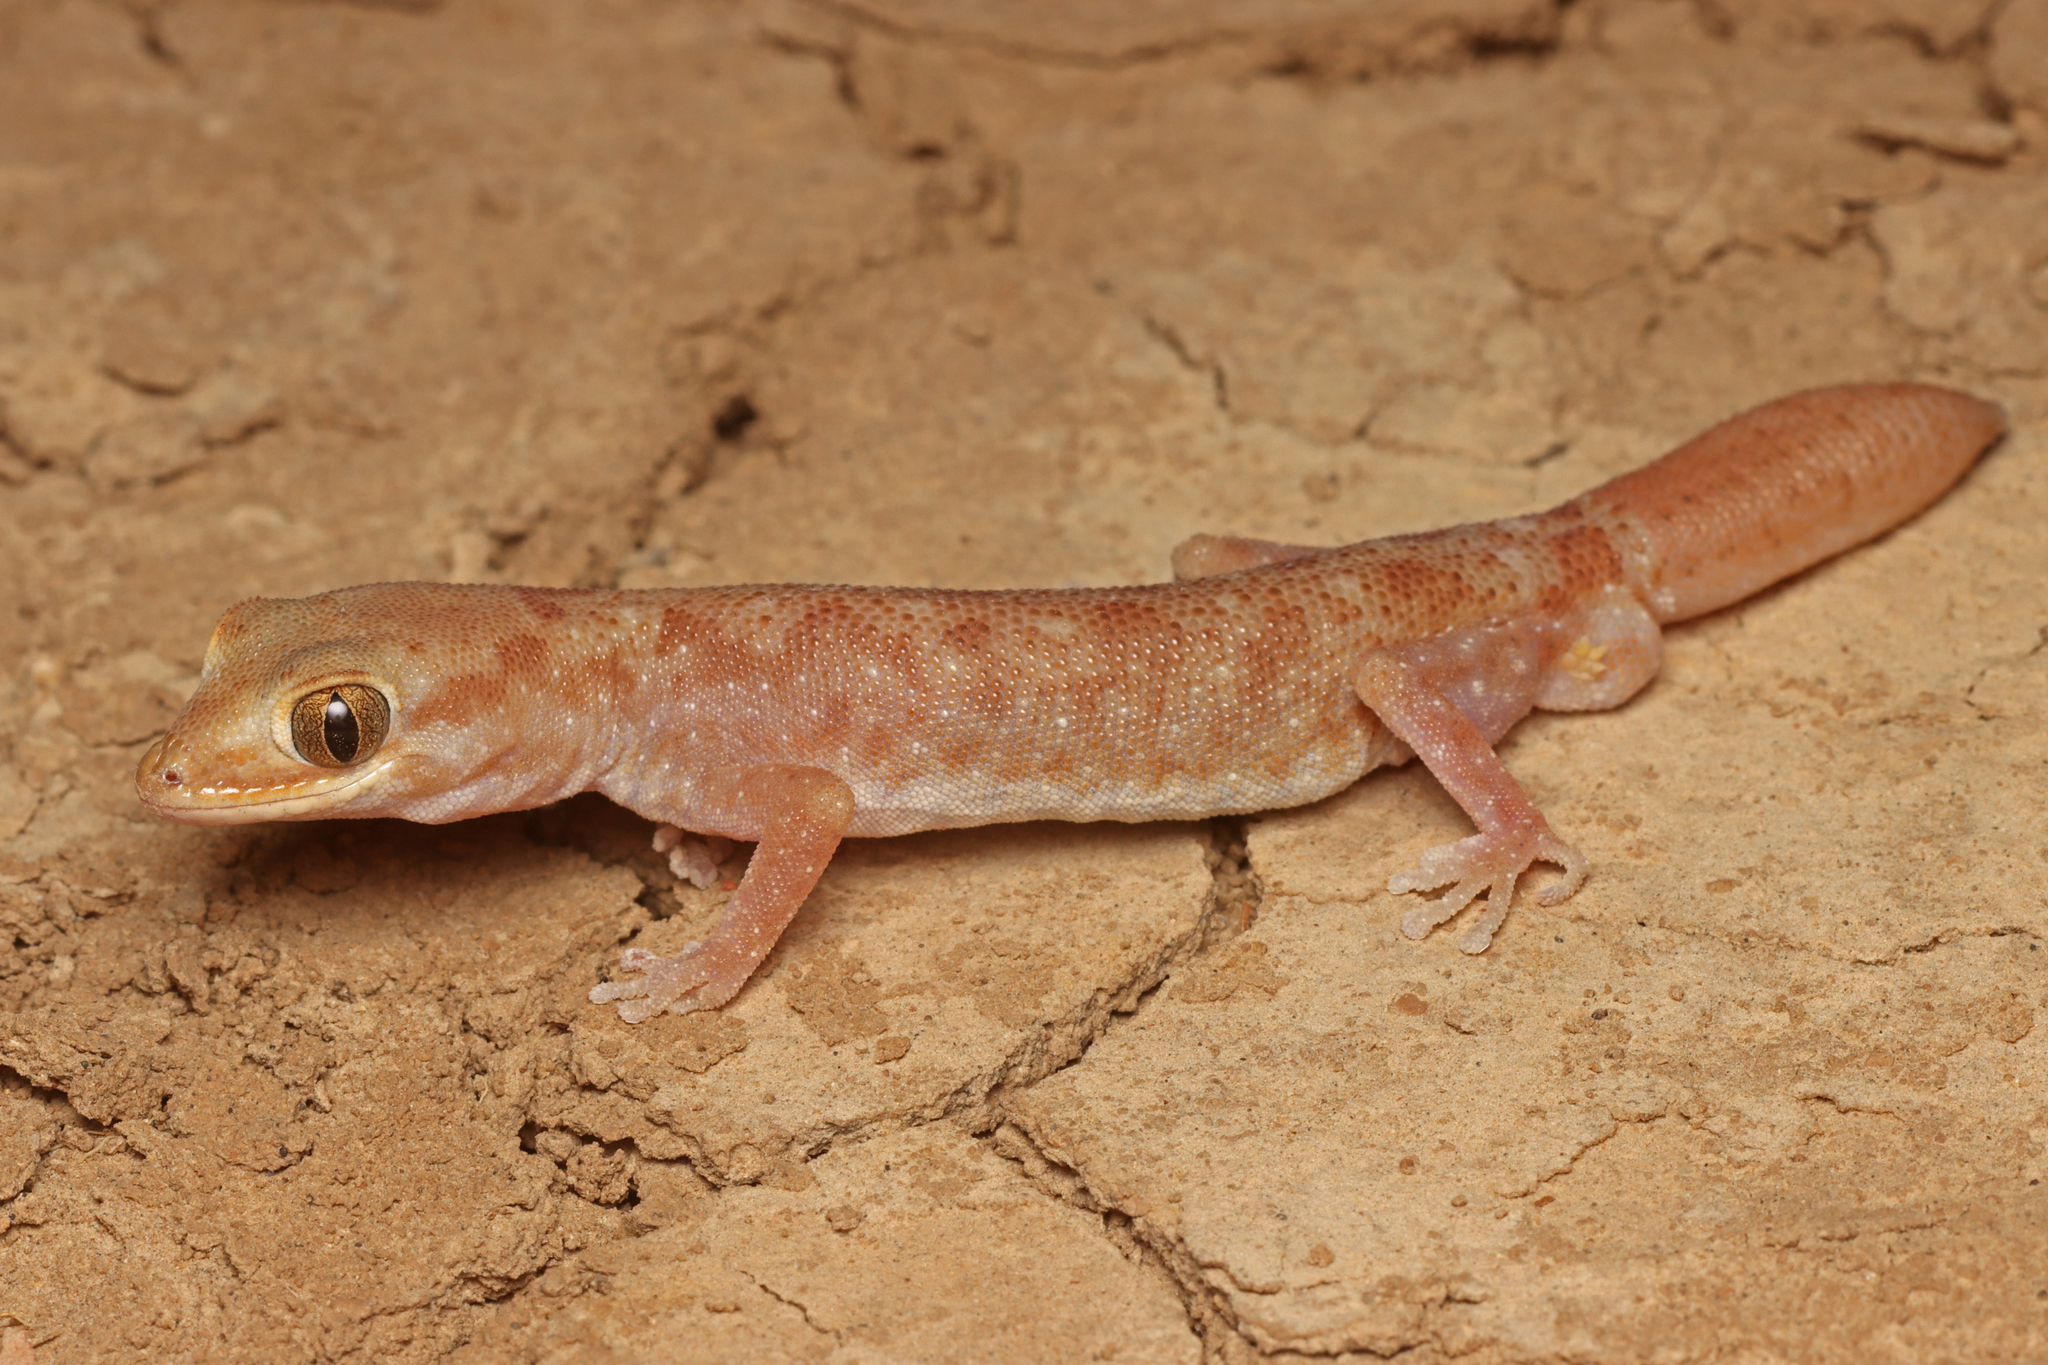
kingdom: Animalia
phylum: Chordata
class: Squamata
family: Diplodactylidae
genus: Diplodactylus
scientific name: Diplodactylus tessellatus
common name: Tesselated gecko
